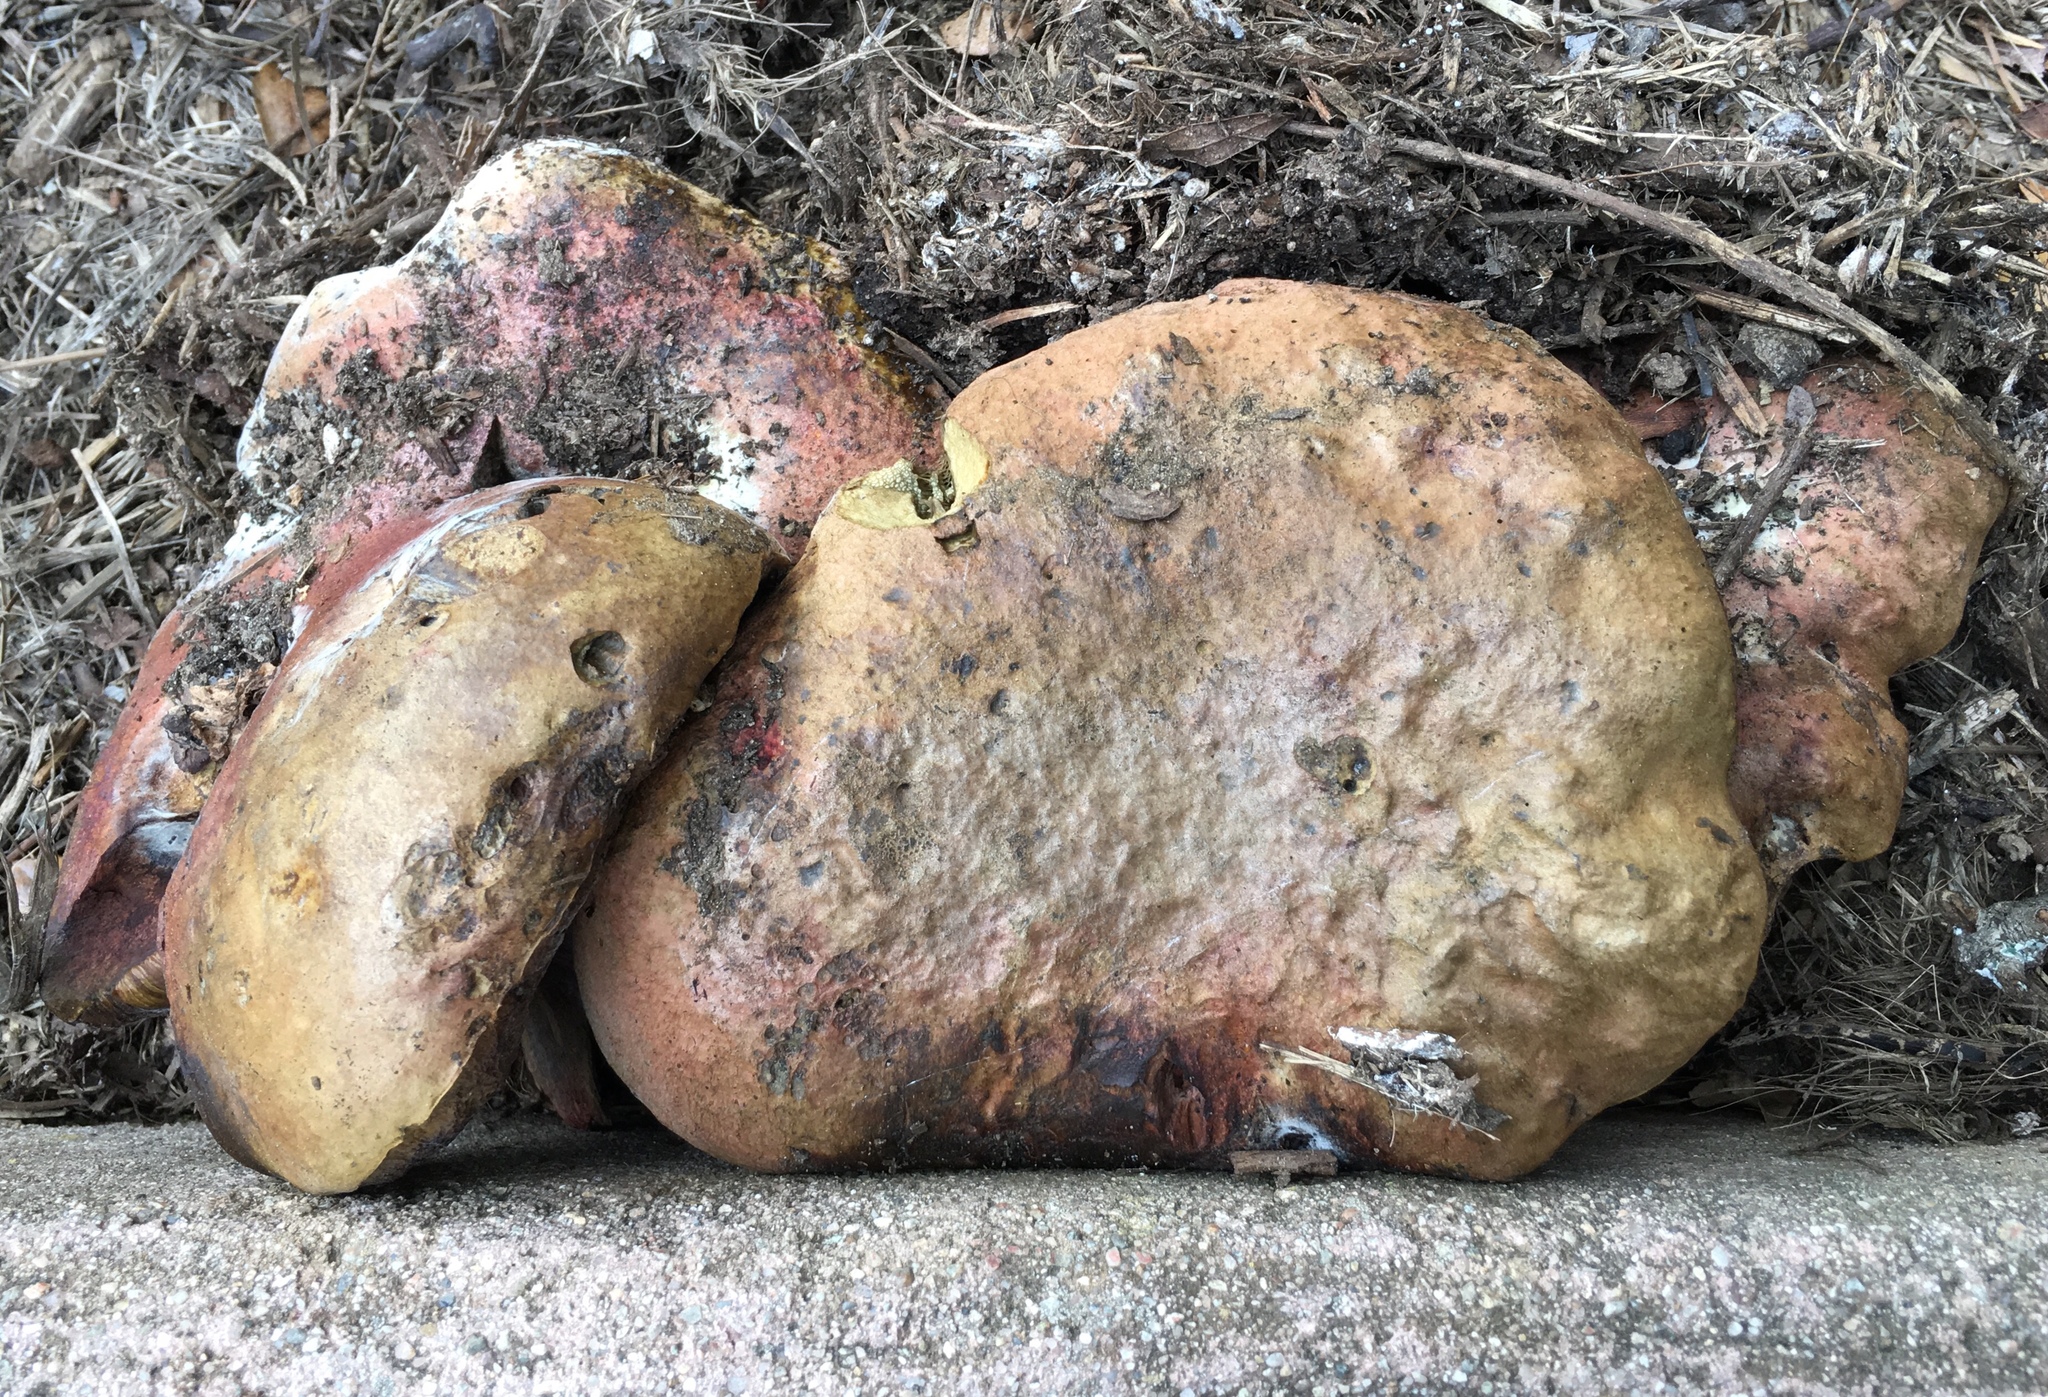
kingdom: Fungi
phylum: Basidiomycota
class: Agaricomycetes
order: Boletales
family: Boletaceae
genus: Xerocomellus
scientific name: Xerocomellus dryophilus
